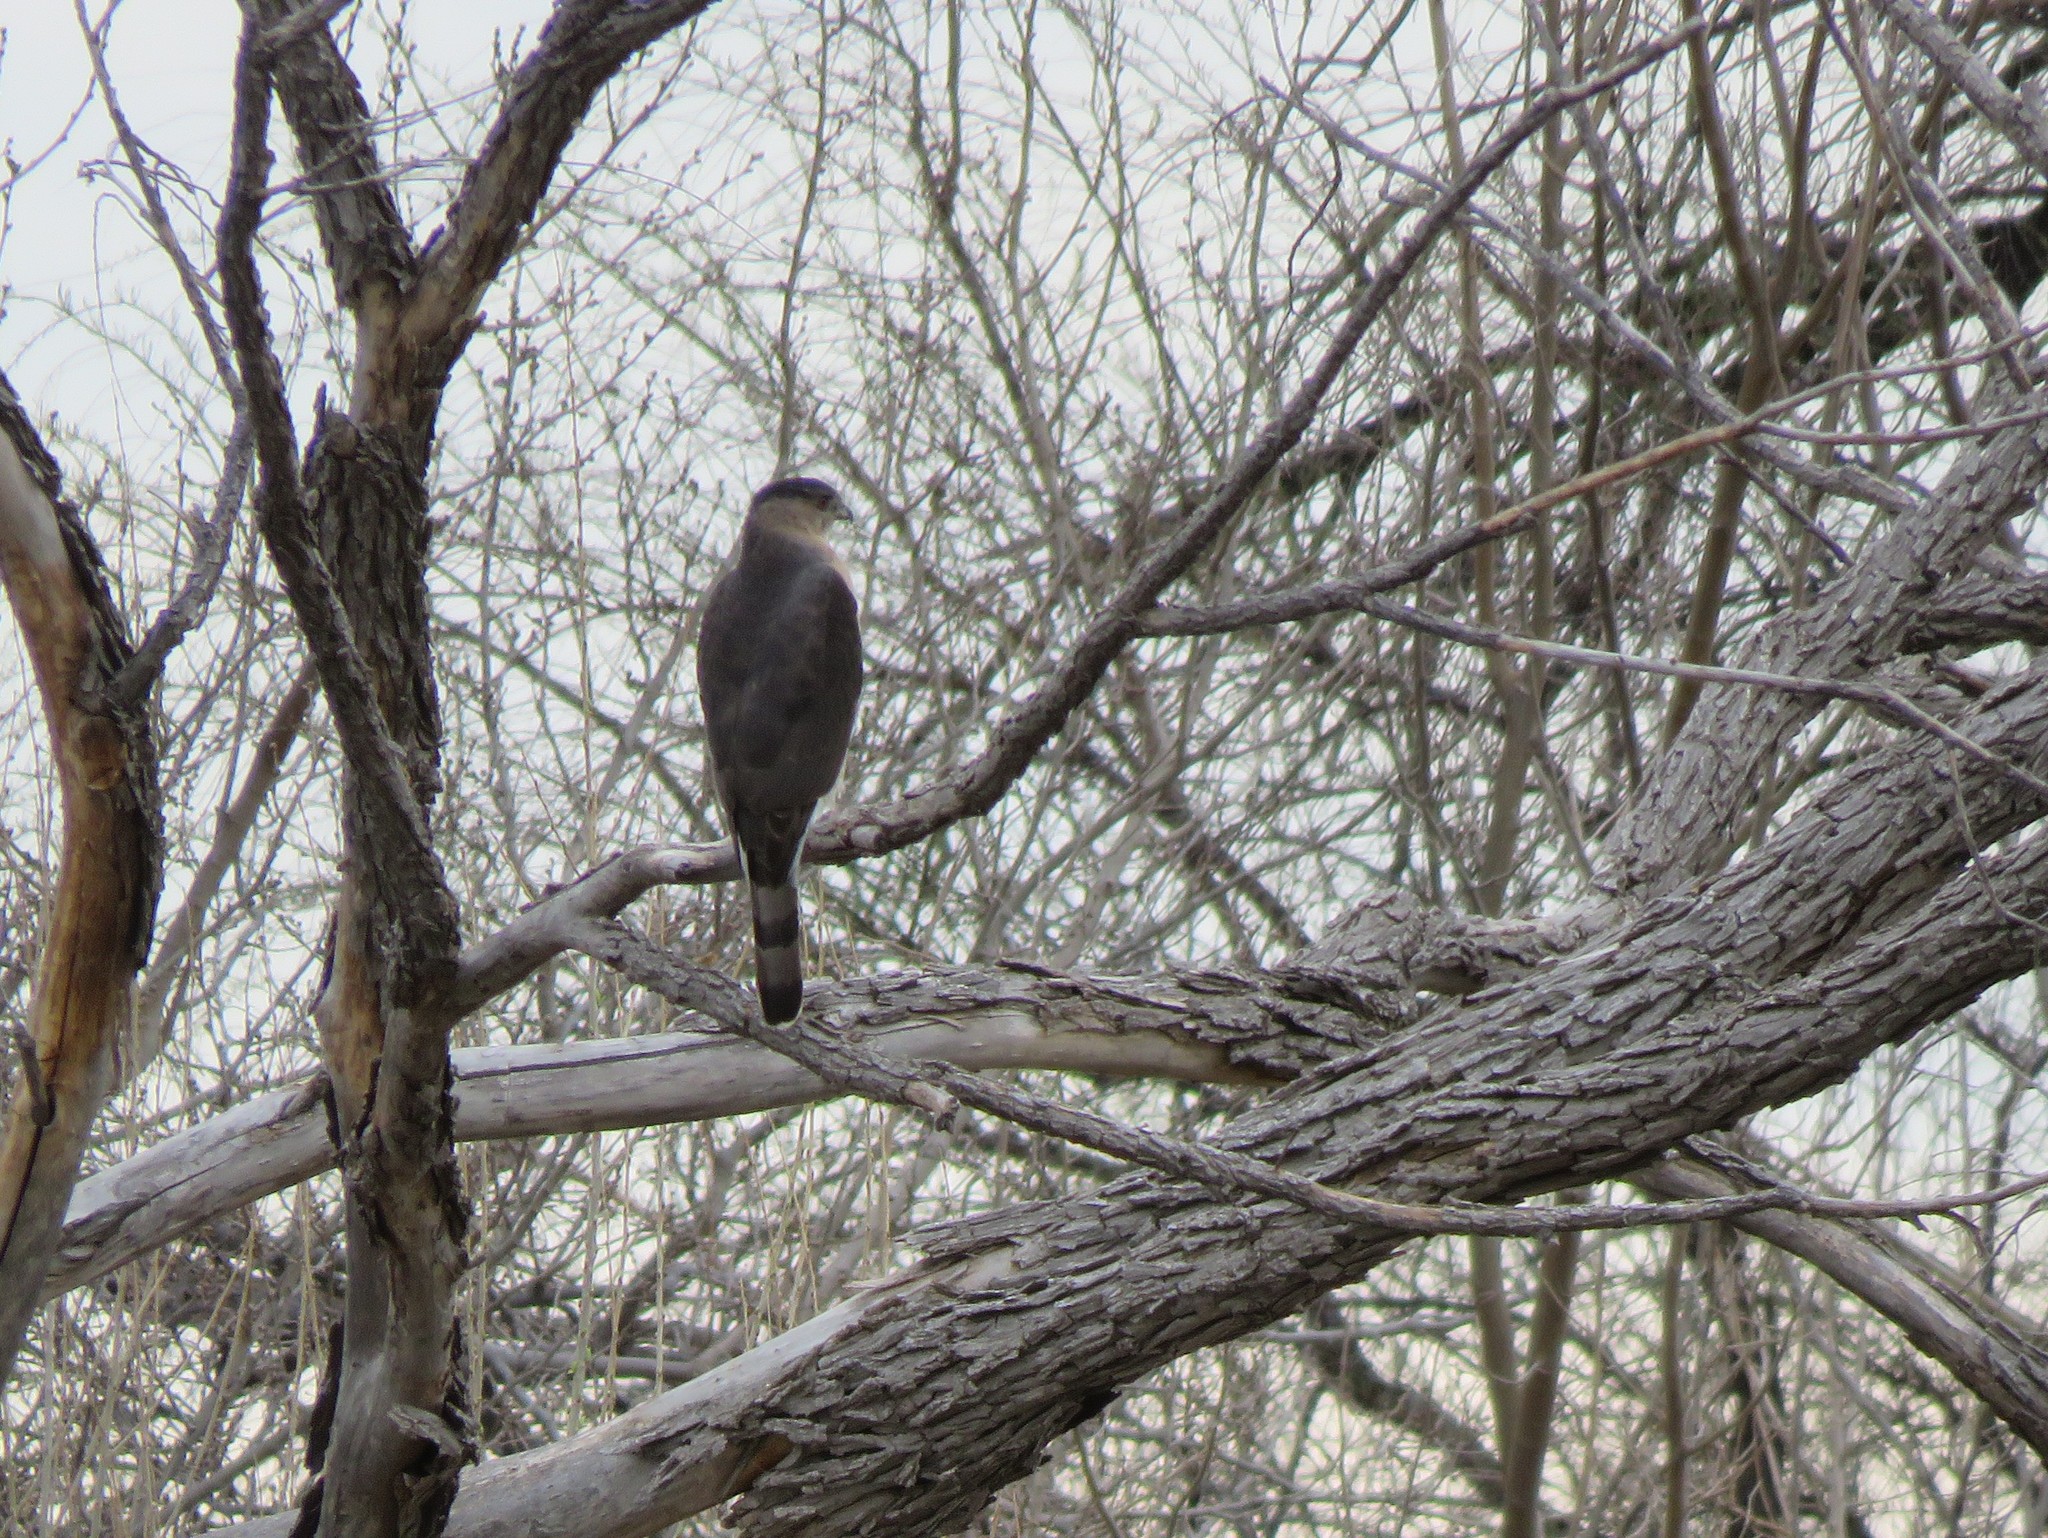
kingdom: Animalia
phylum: Chordata
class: Aves
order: Accipitriformes
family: Accipitridae
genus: Accipiter
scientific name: Accipiter cooperii
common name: Cooper's hawk
